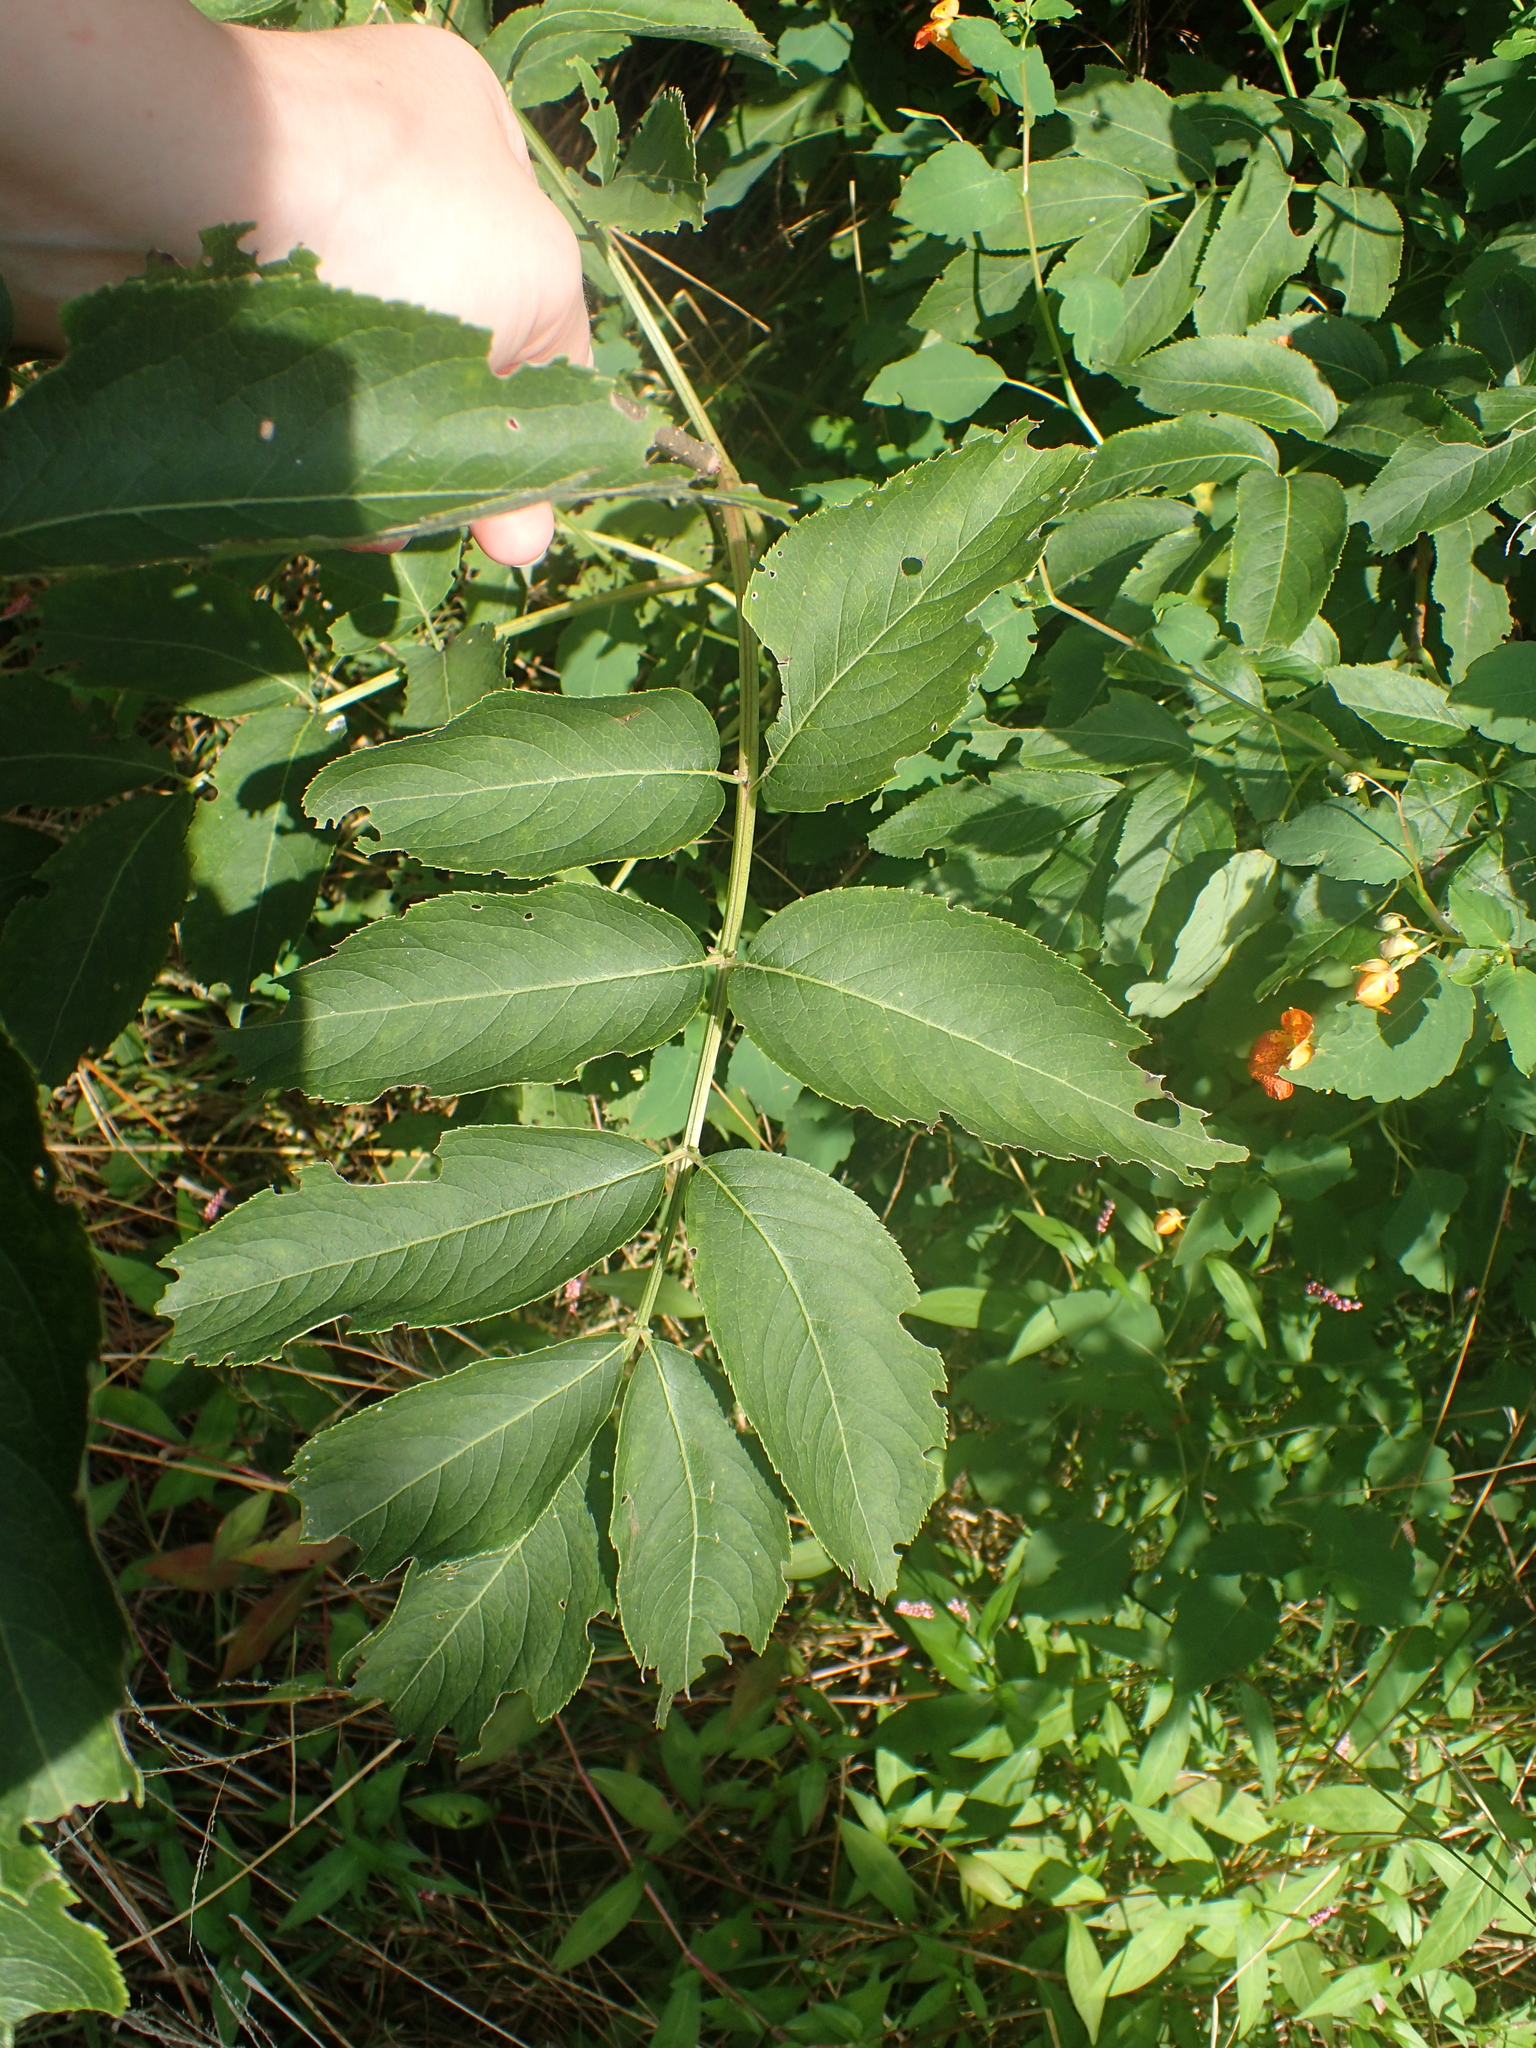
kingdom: Plantae
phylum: Tracheophyta
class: Magnoliopsida
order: Dipsacales
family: Viburnaceae
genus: Sambucus
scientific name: Sambucus canadensis
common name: American elder
